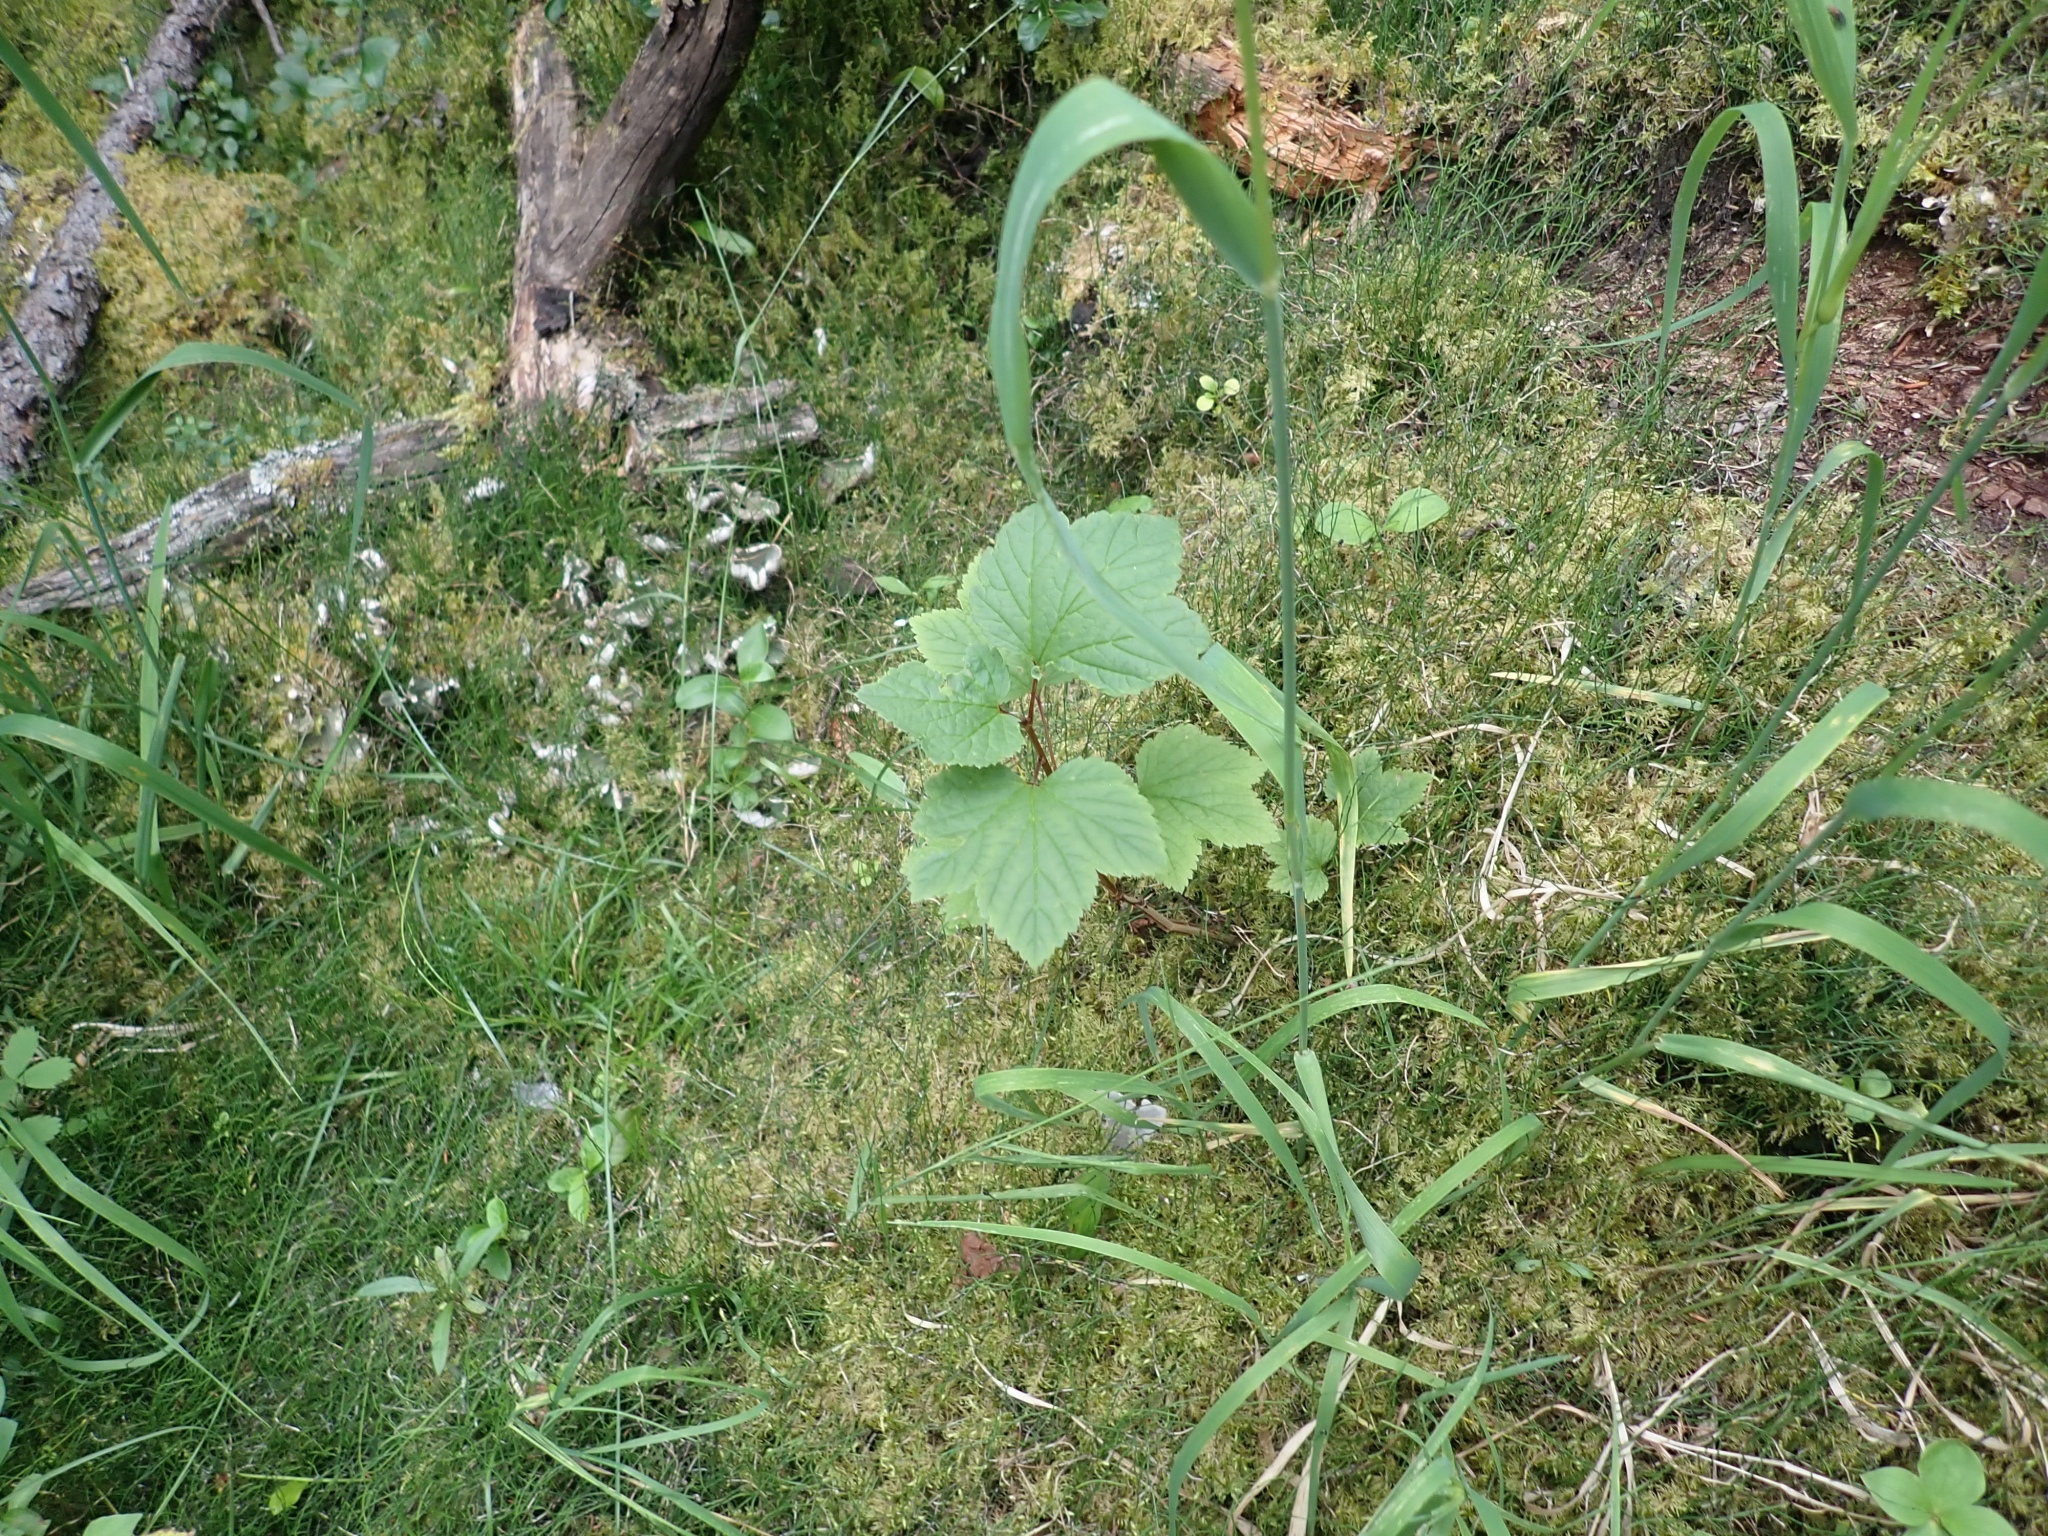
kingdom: Plantae
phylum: Tracheophyta
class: Magnoliopsida
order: Saxifragales
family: Grossulariaceae
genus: Ribes
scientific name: Ribes triste
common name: Swamp red currant
